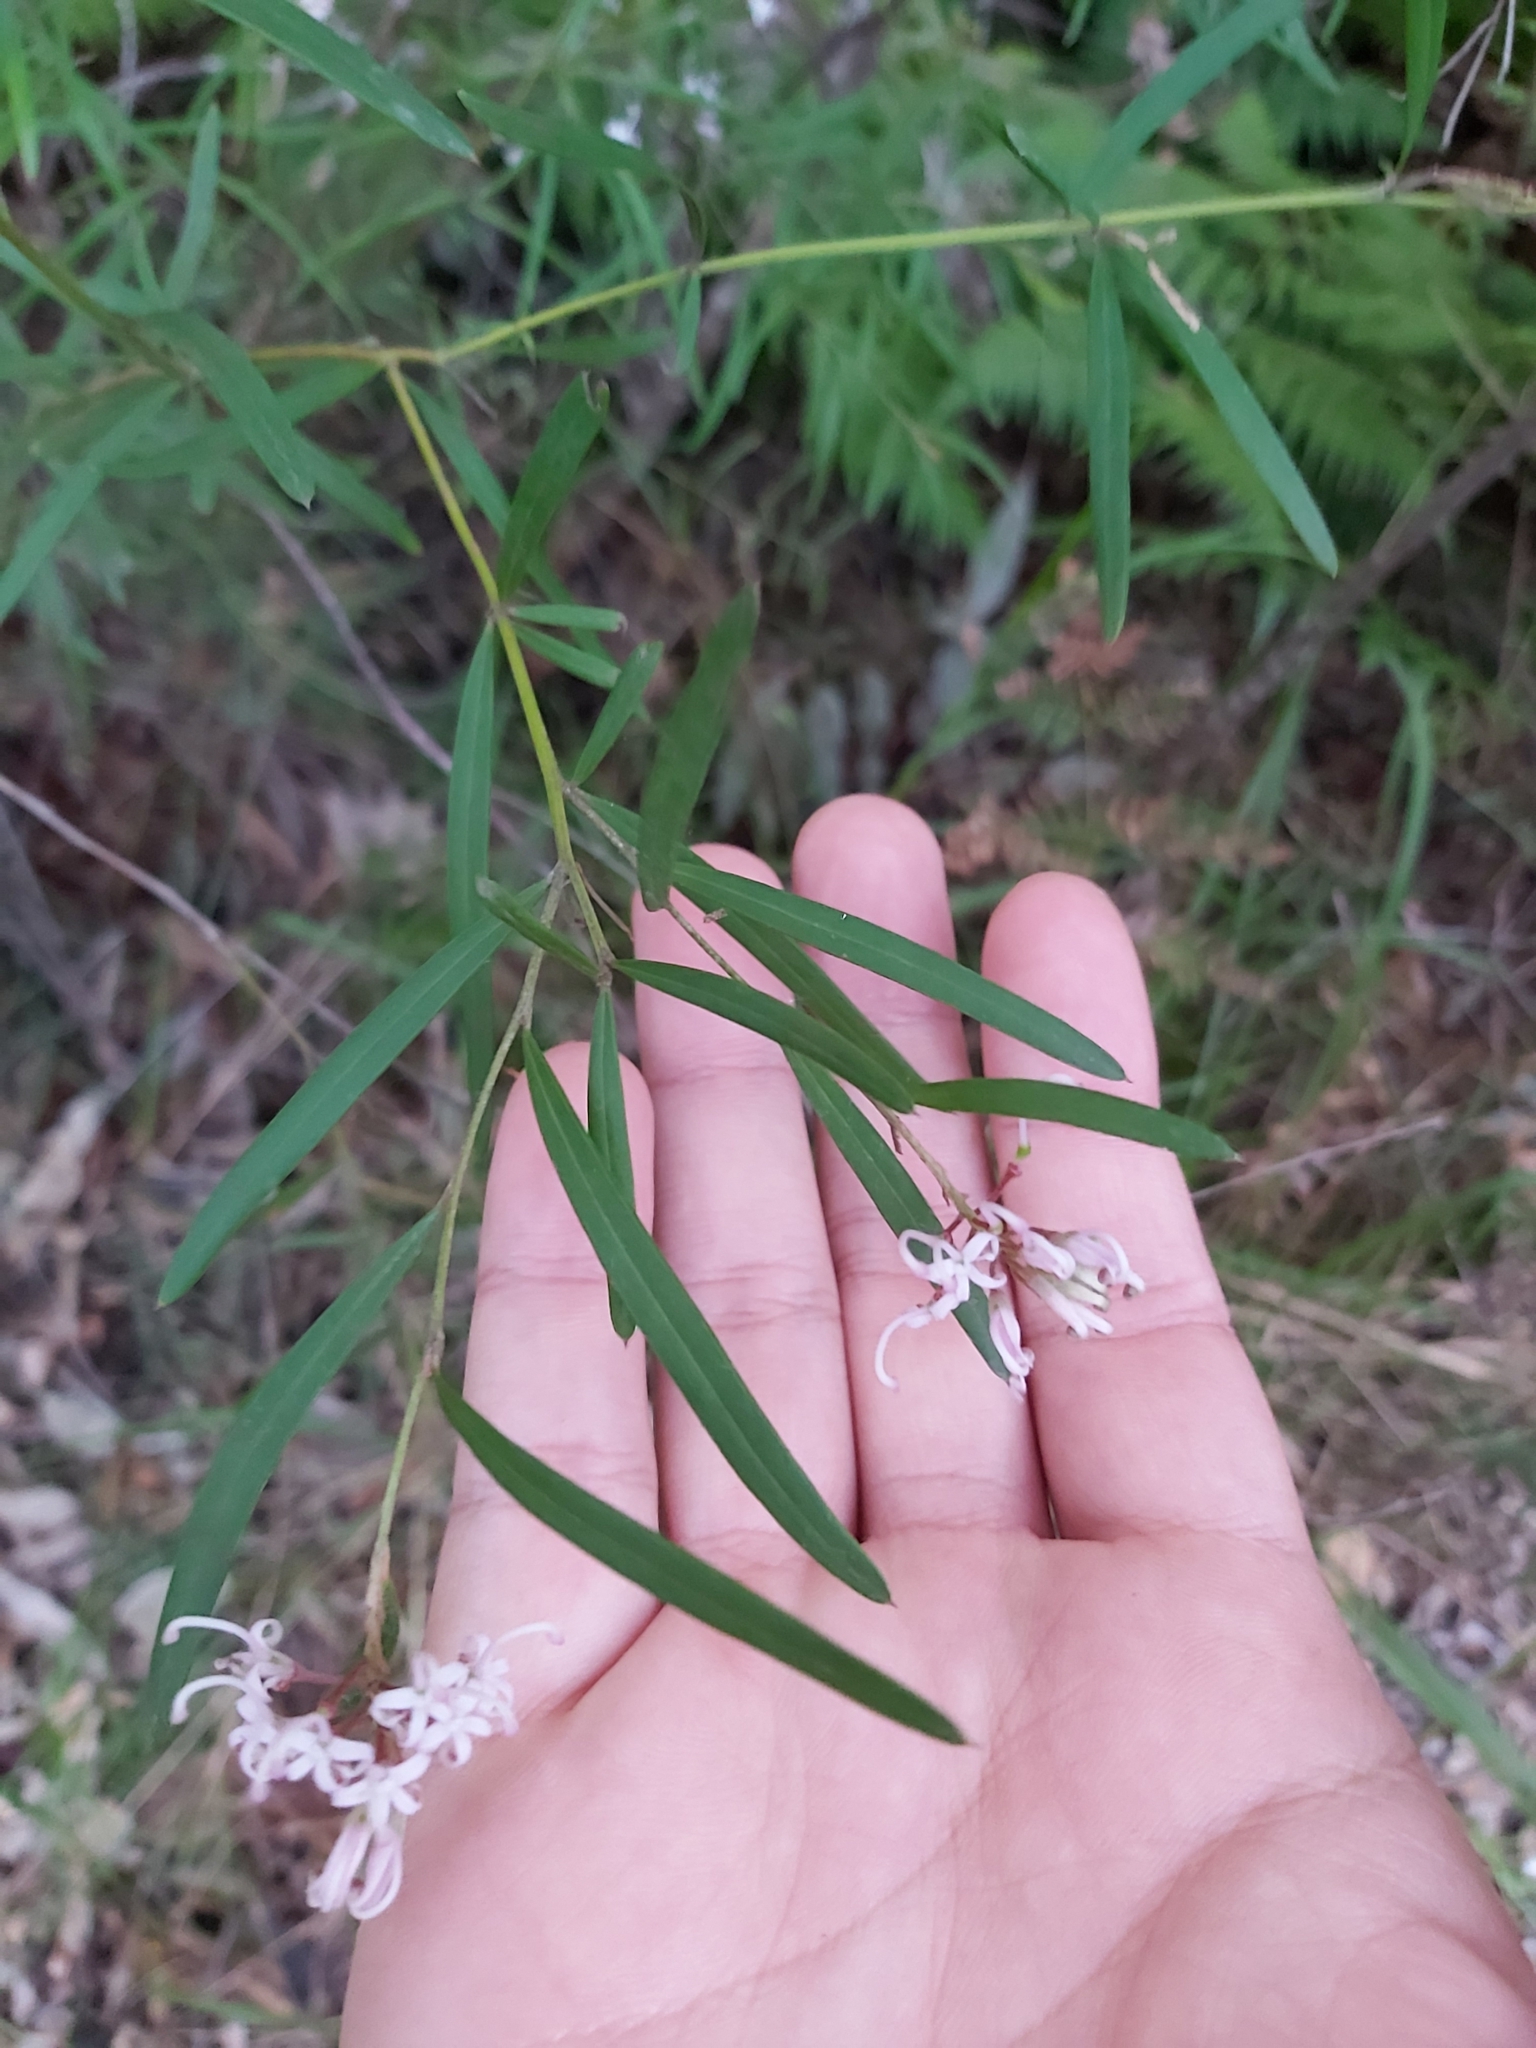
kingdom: Plantae
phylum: Tracheophyta
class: Magnoliopsida
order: Proteales
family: Proteaceae
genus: Grevillea
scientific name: Grevillea linearifolia
